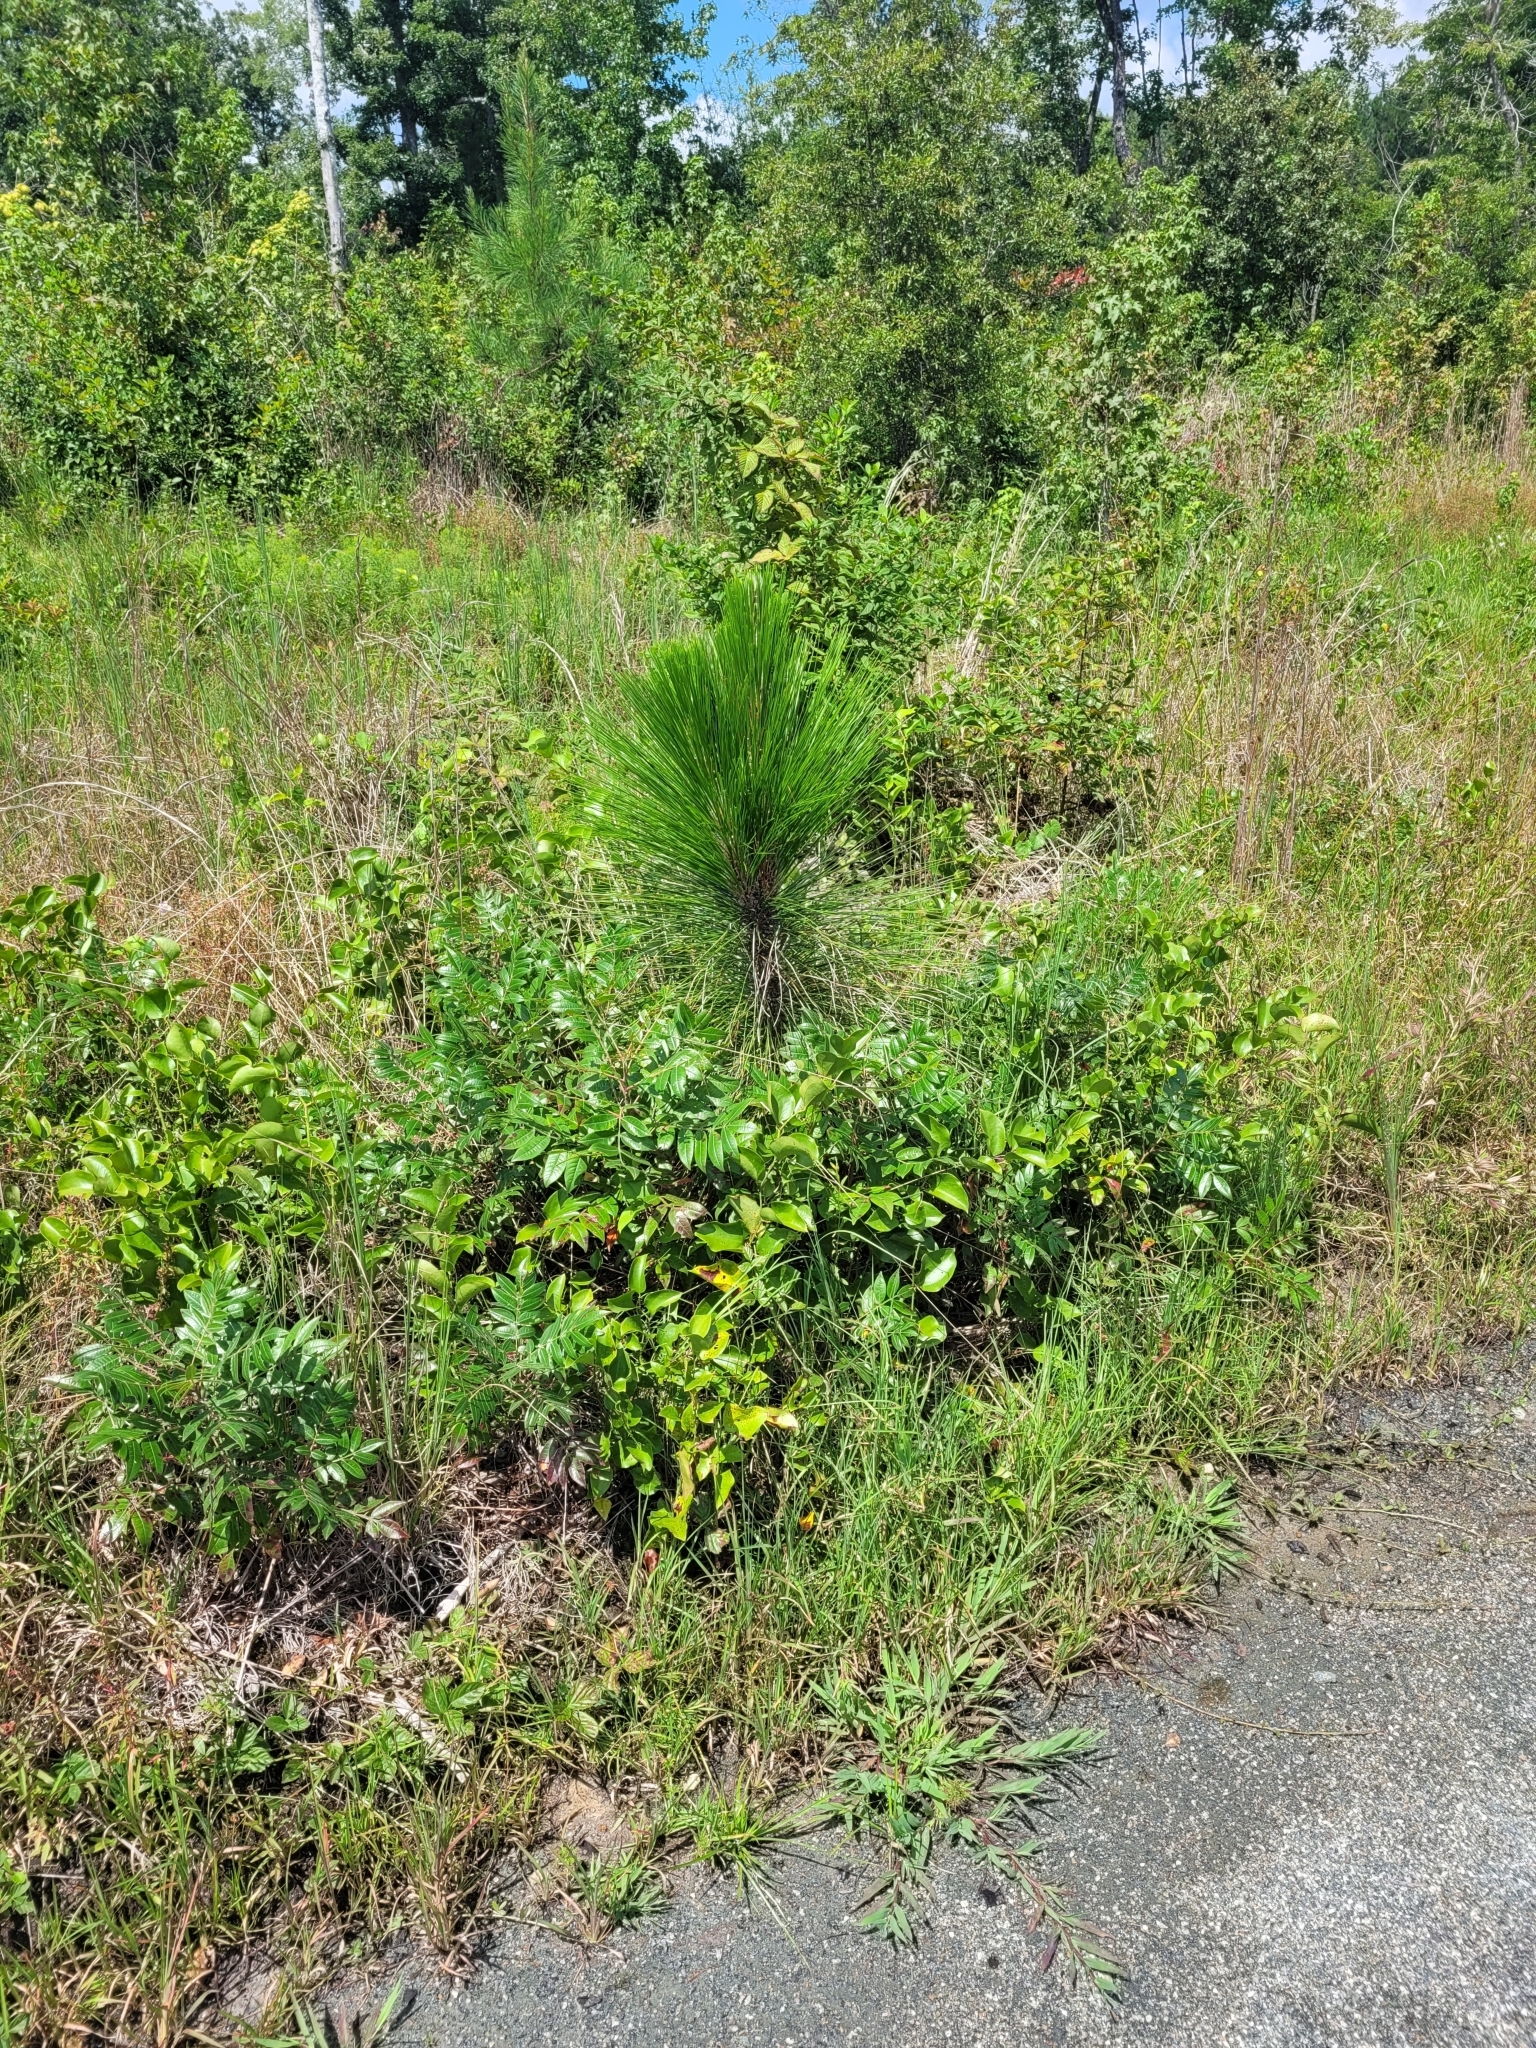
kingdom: Plantae
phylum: Tracheophyta
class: Pinopsida
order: Pinales
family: Pinaceae
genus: Pinus
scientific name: Pinus palustris
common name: Longleaf pine
